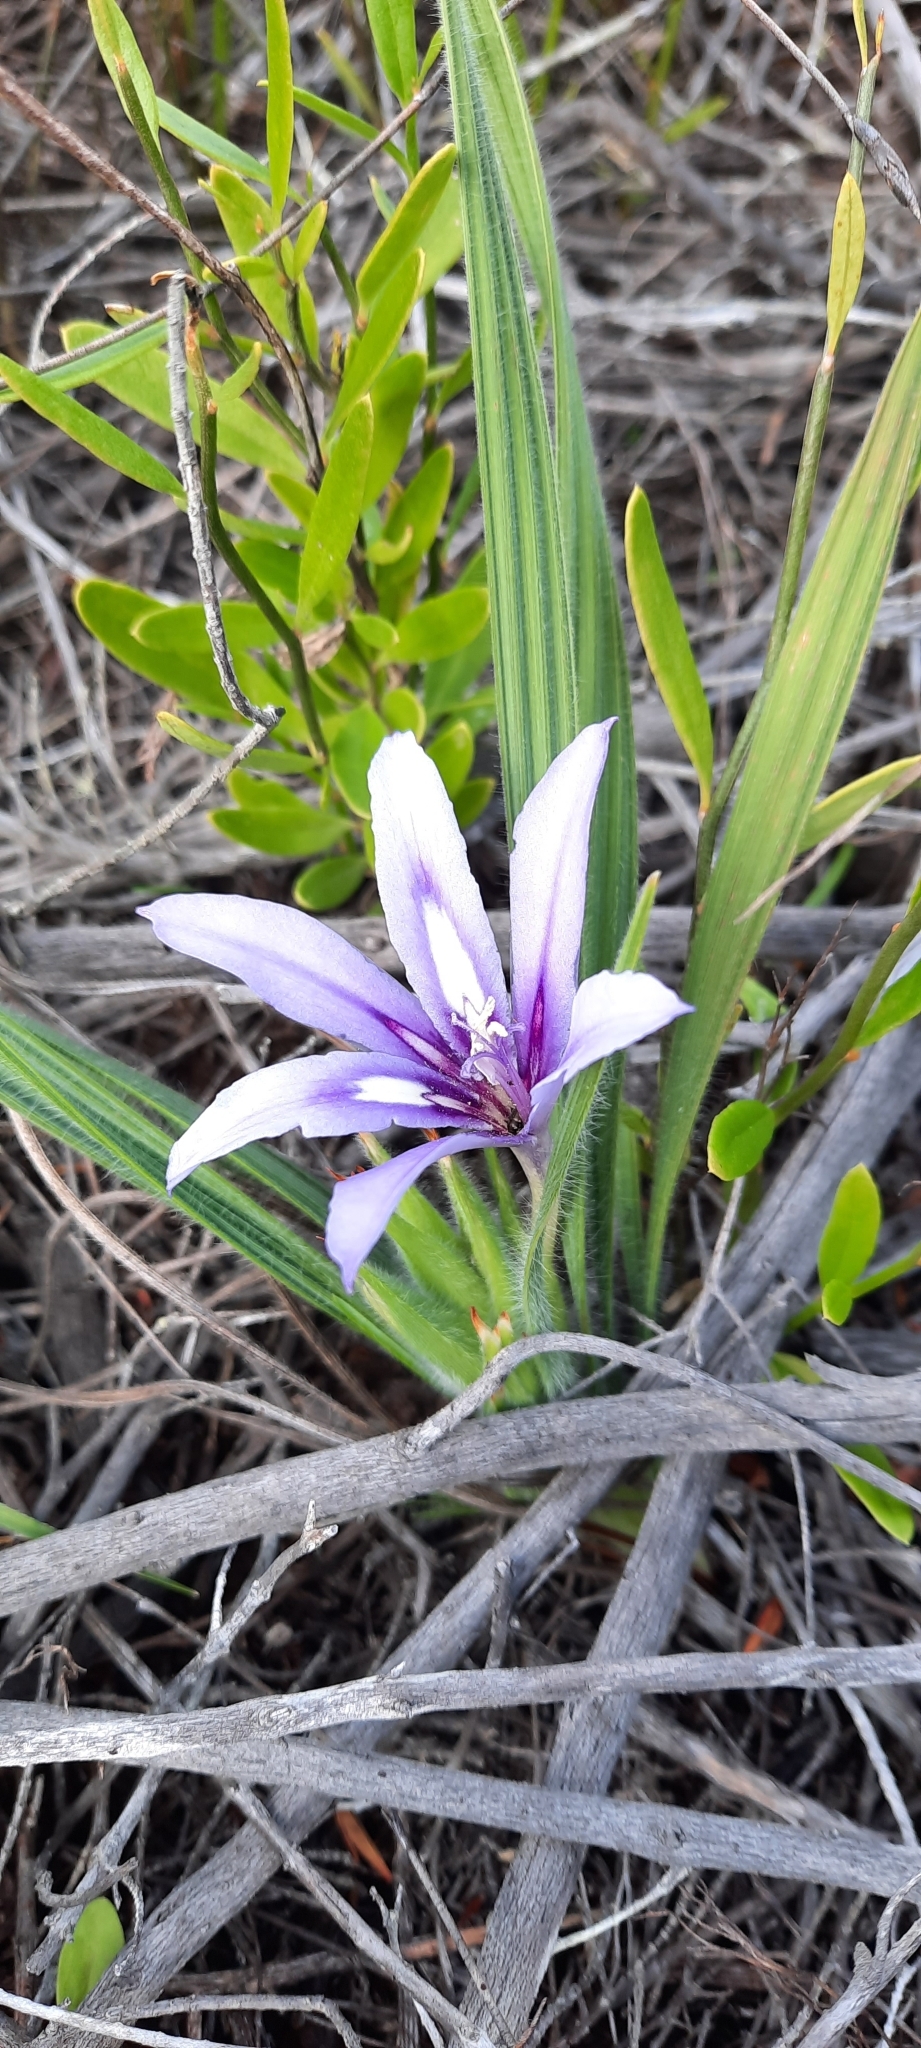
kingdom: Plantae
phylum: Tracheophyta
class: Liliopsida
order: Asparagales
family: Iridaceae
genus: Babiana
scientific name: Babiana sambucina
